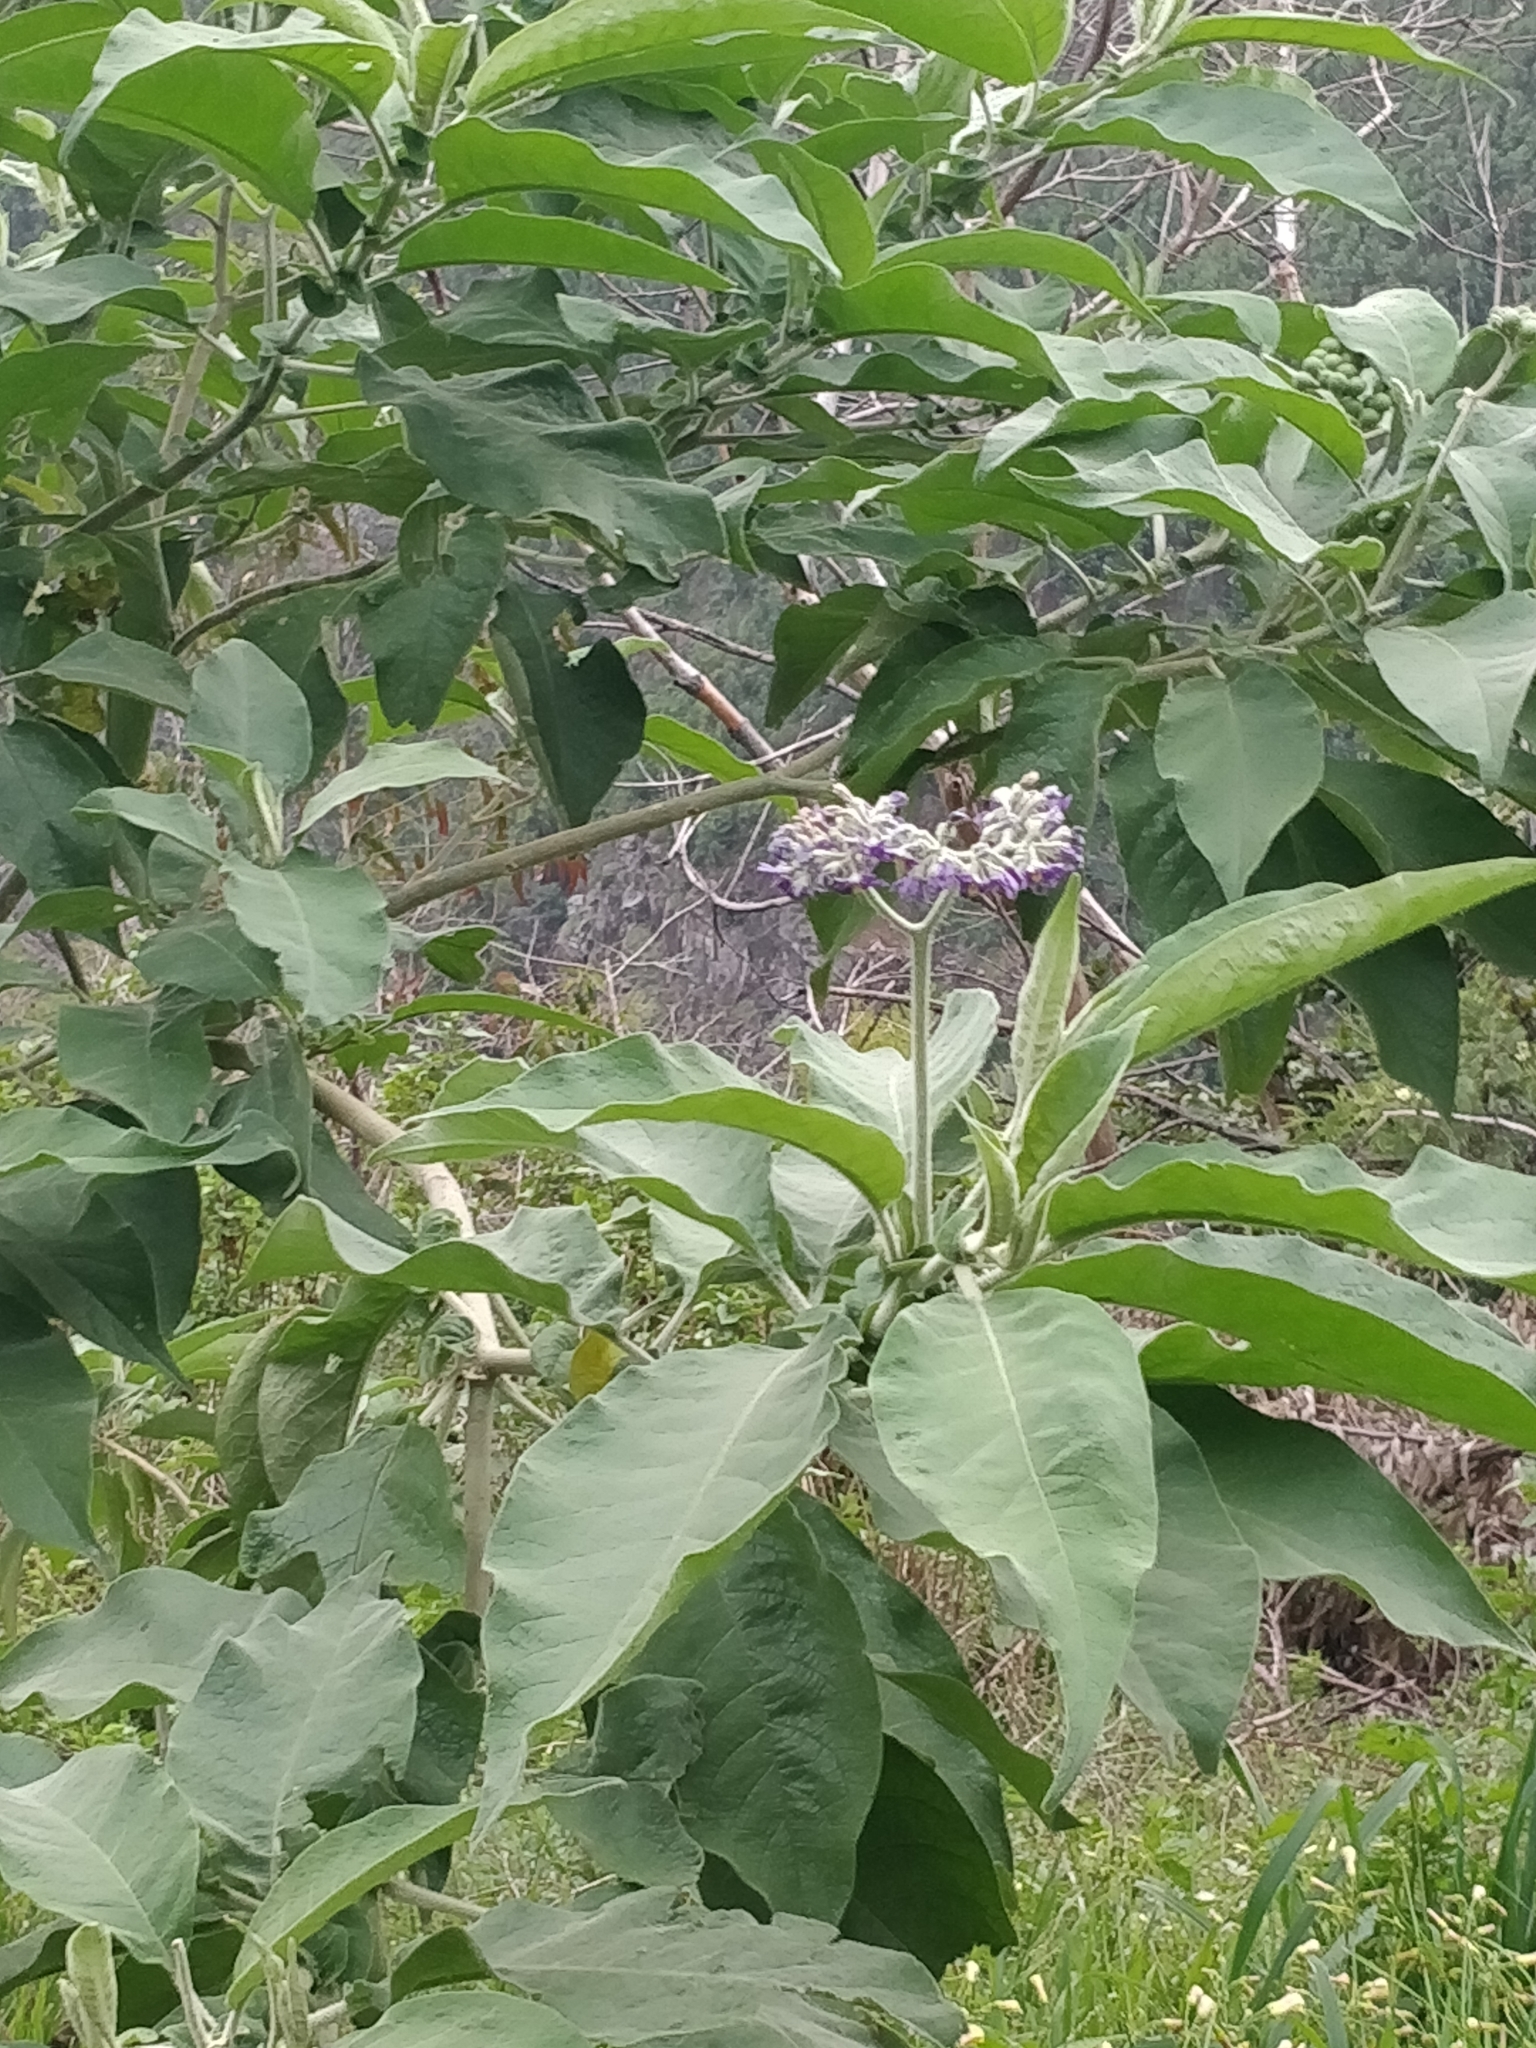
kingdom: Plantae
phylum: Tracheophyta
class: Magnoliopsida
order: Solanales
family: Solanaceae
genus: Solanum
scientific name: Solanum mauritianum
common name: Earleaf nightshade
